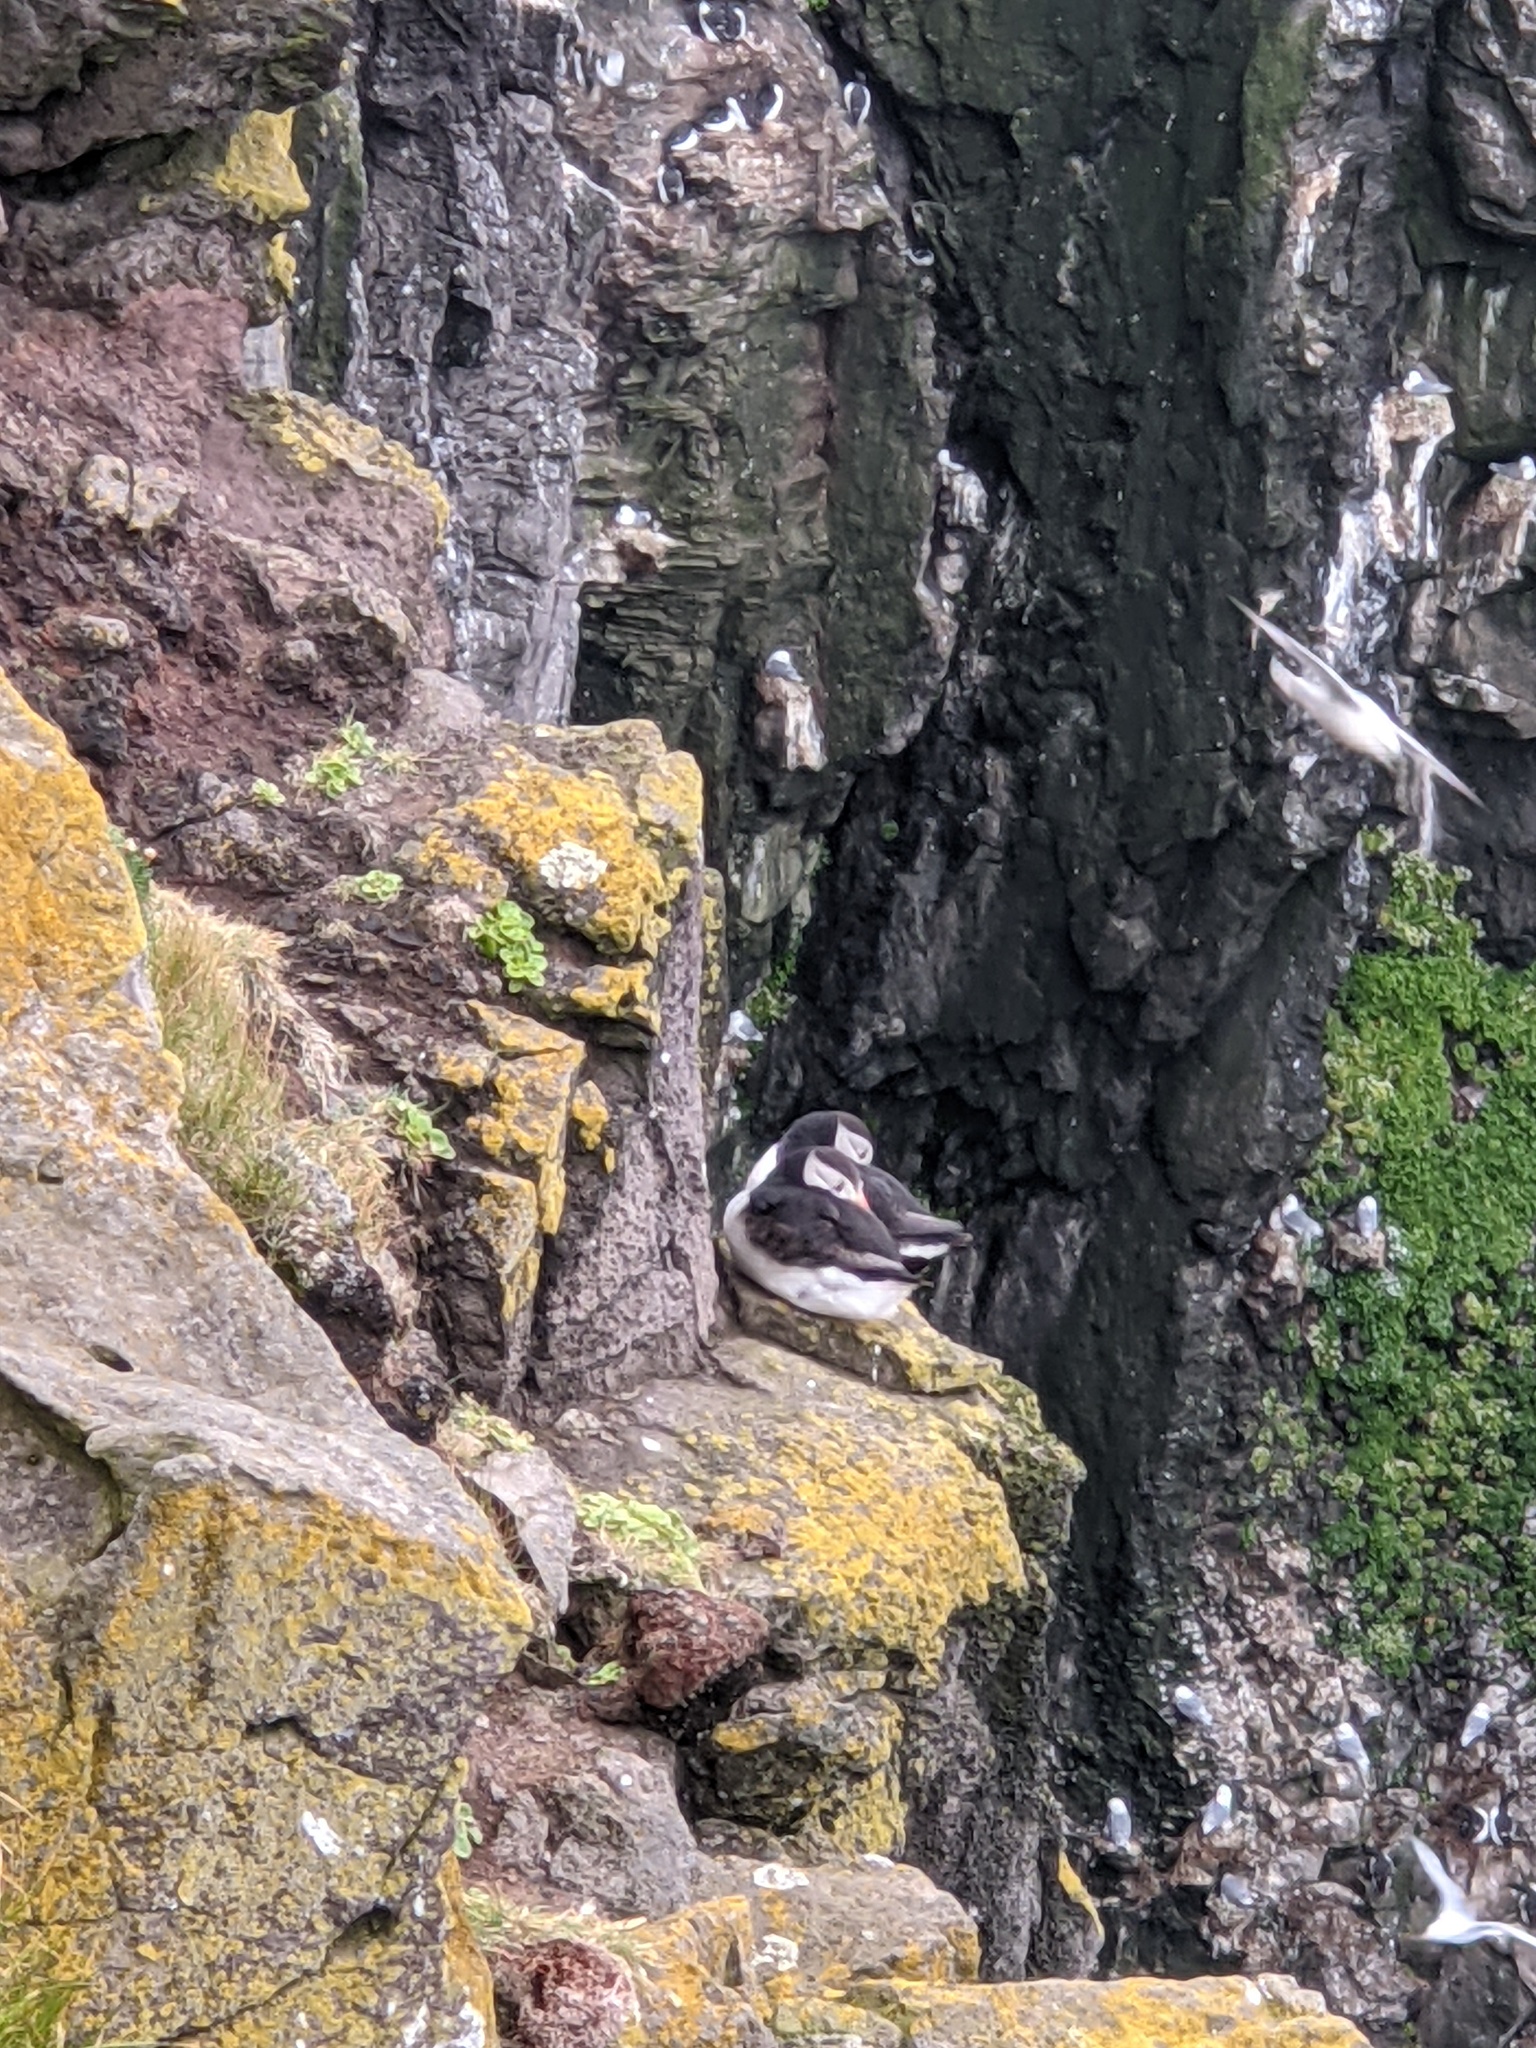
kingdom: Animalia
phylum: Chordata
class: Aves
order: Charadriiformes
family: Alcidae
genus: Fratercula
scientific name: Fratercula arctica
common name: Atlantic puffin
